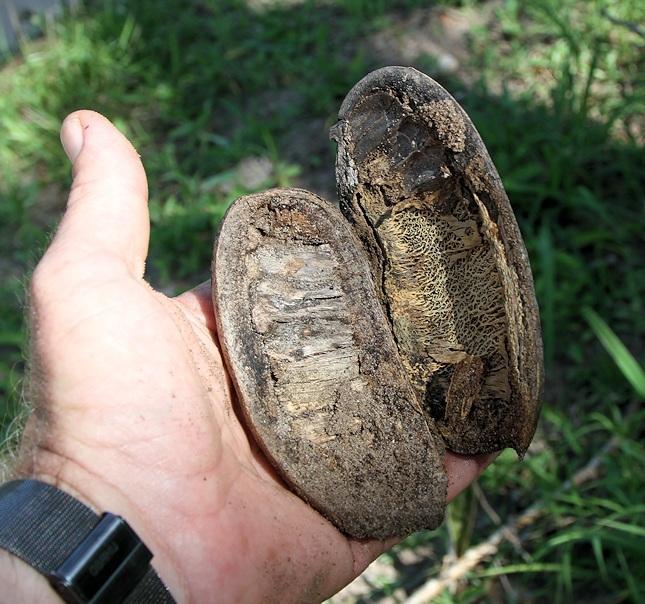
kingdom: Plantae
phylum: Tracheophyta
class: Magnoliopsida
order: Fabales
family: Fabaceae
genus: Afzelia
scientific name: Afzelia quanzensis
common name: Pod mahogany
